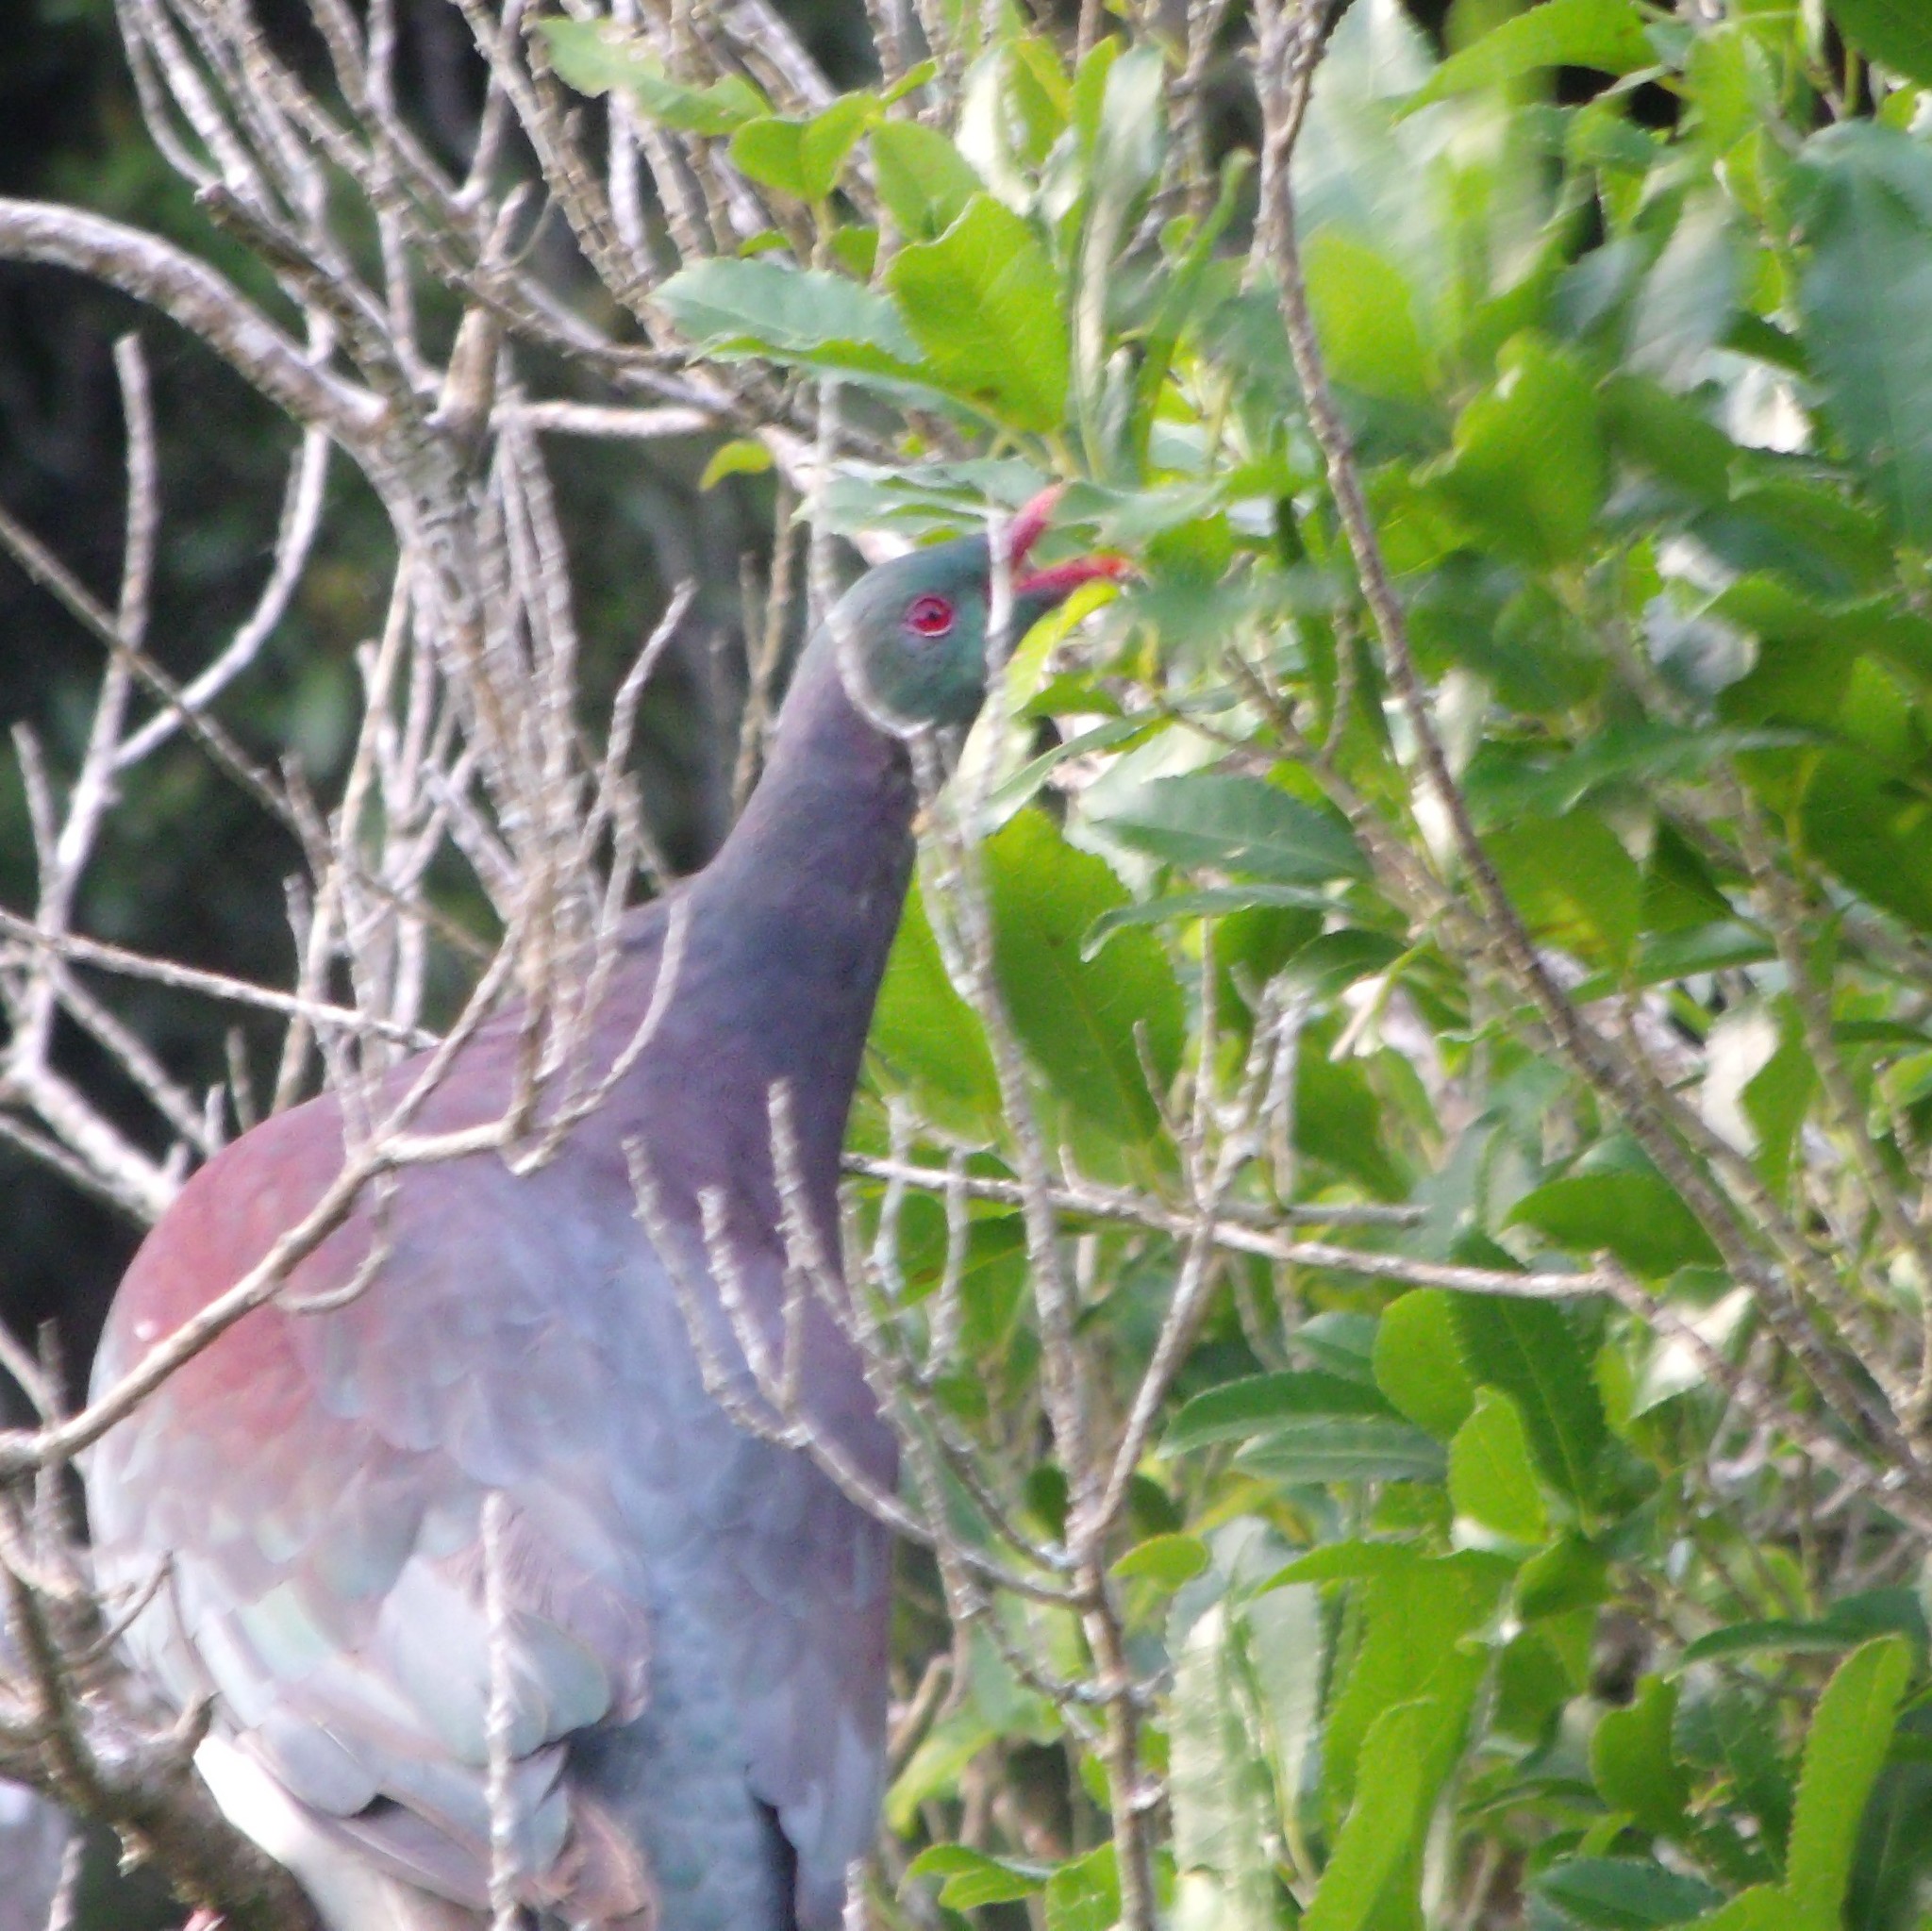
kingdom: Animalia
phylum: Chordata
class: Aves
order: Columbiformes
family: Columbidae
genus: Hemiphaga
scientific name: Hemiphaga novaeseelandiae
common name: New zealand pigeon
